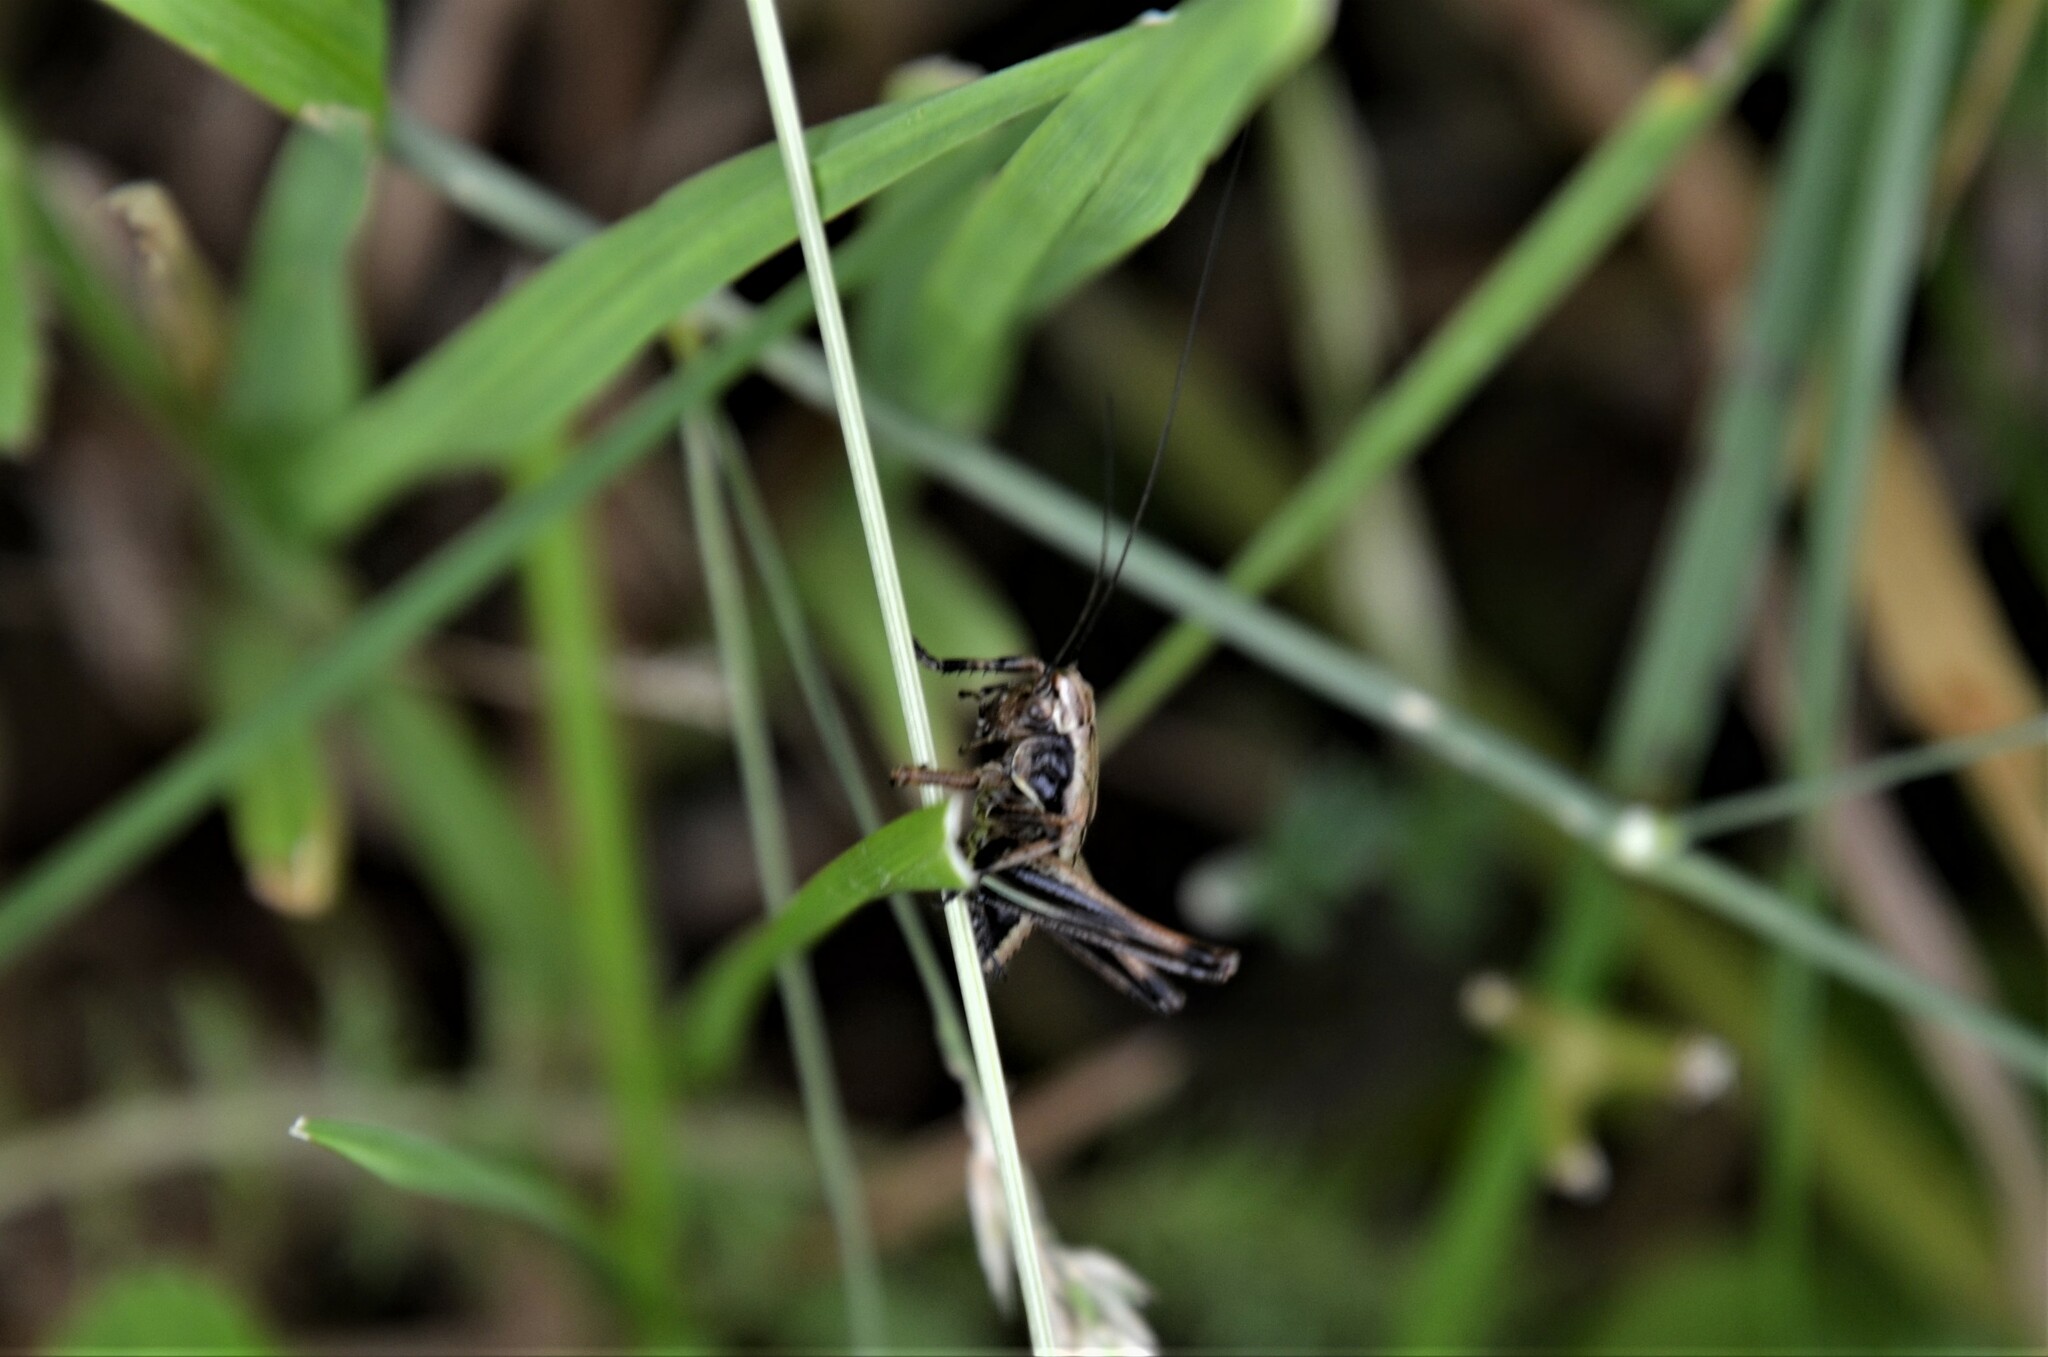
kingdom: Animalia
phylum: Arthropoda
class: Insecta
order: Orthoptera
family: Tettigoniidae
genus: Pholidoptera
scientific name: Pholidoptera griseoaptera
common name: Dark bush-cricket
